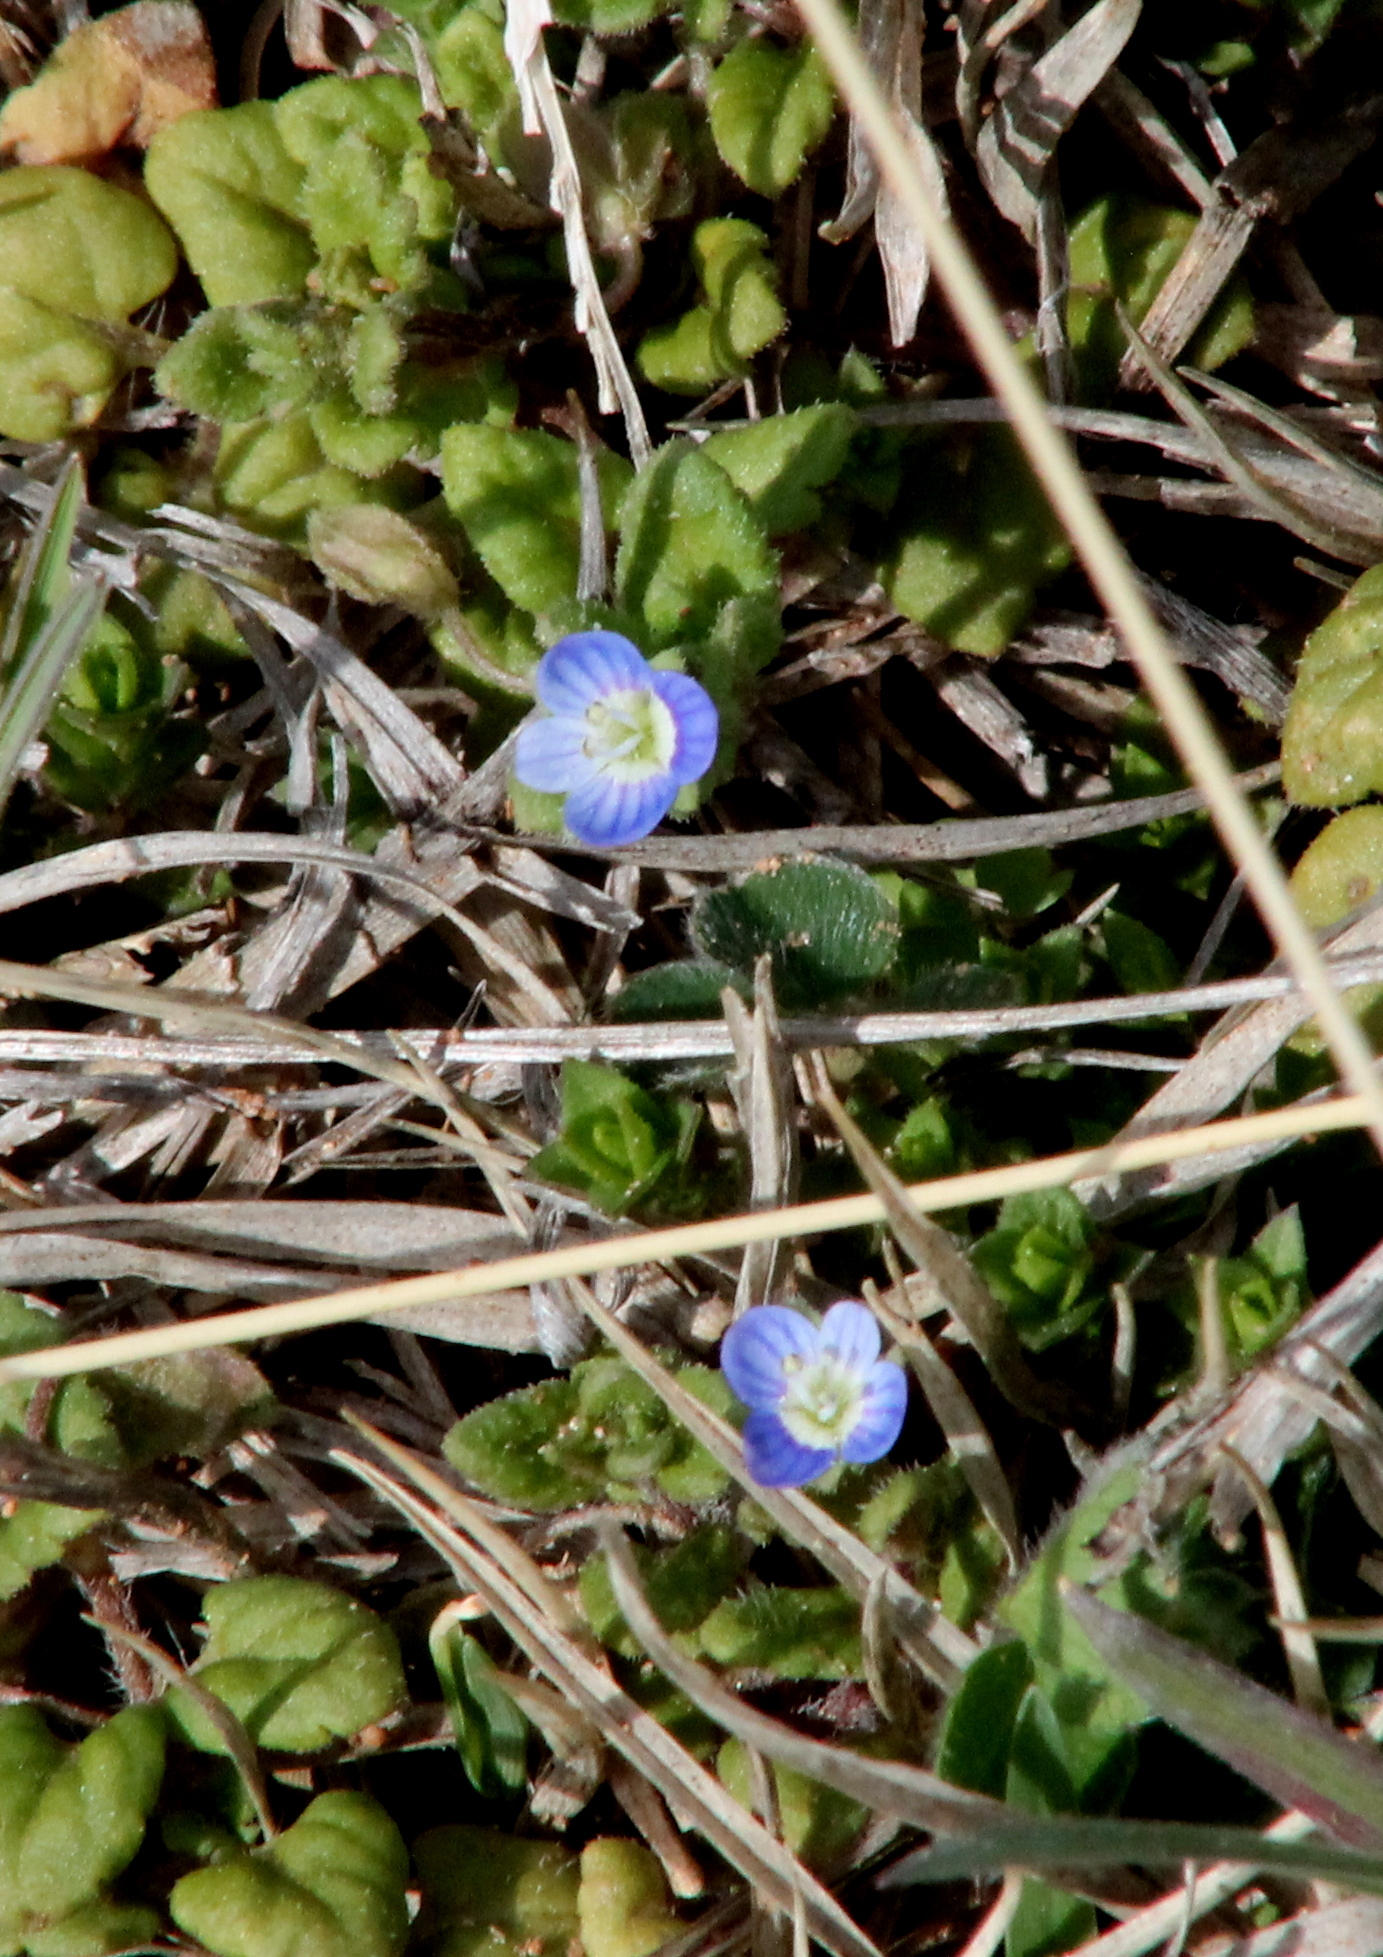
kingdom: Plantae
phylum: Tracheophyta
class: Magnoliopsida
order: Lamiales
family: Plantaginaceae
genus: Veronica
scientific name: Veronica polita
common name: Grey field-speedwell
